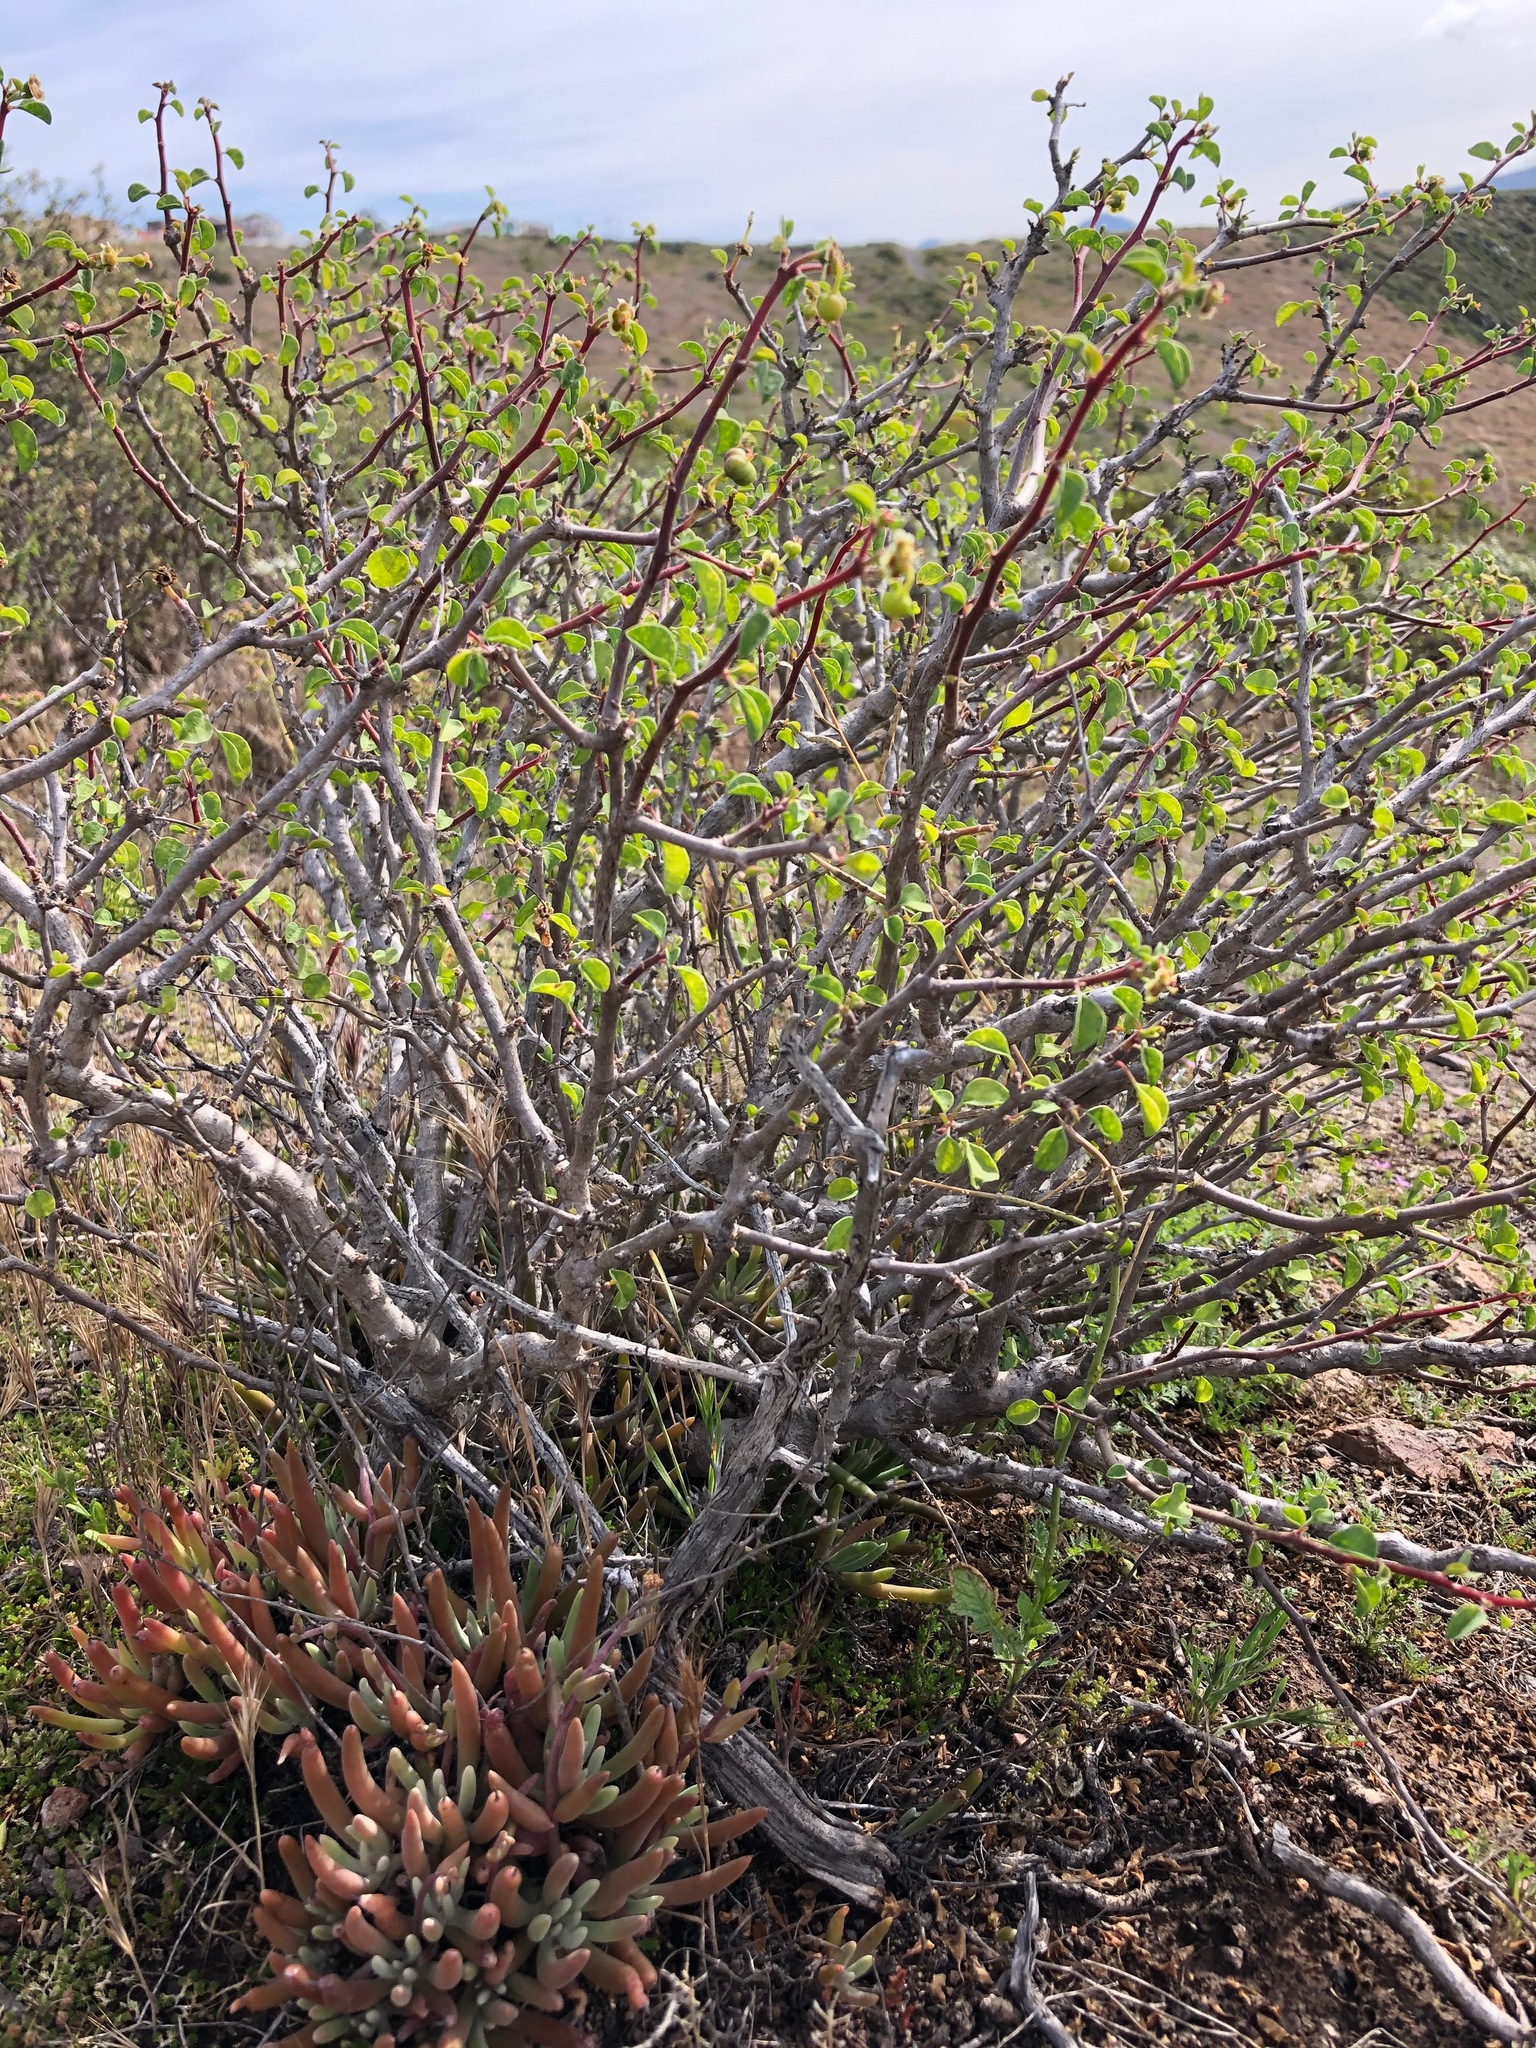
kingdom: Plantae
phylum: Tracheophyta
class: Magnoliopsida
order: Malpighiales
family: Euphorbiaceae
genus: Euphorbia
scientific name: Euphorbia misera
